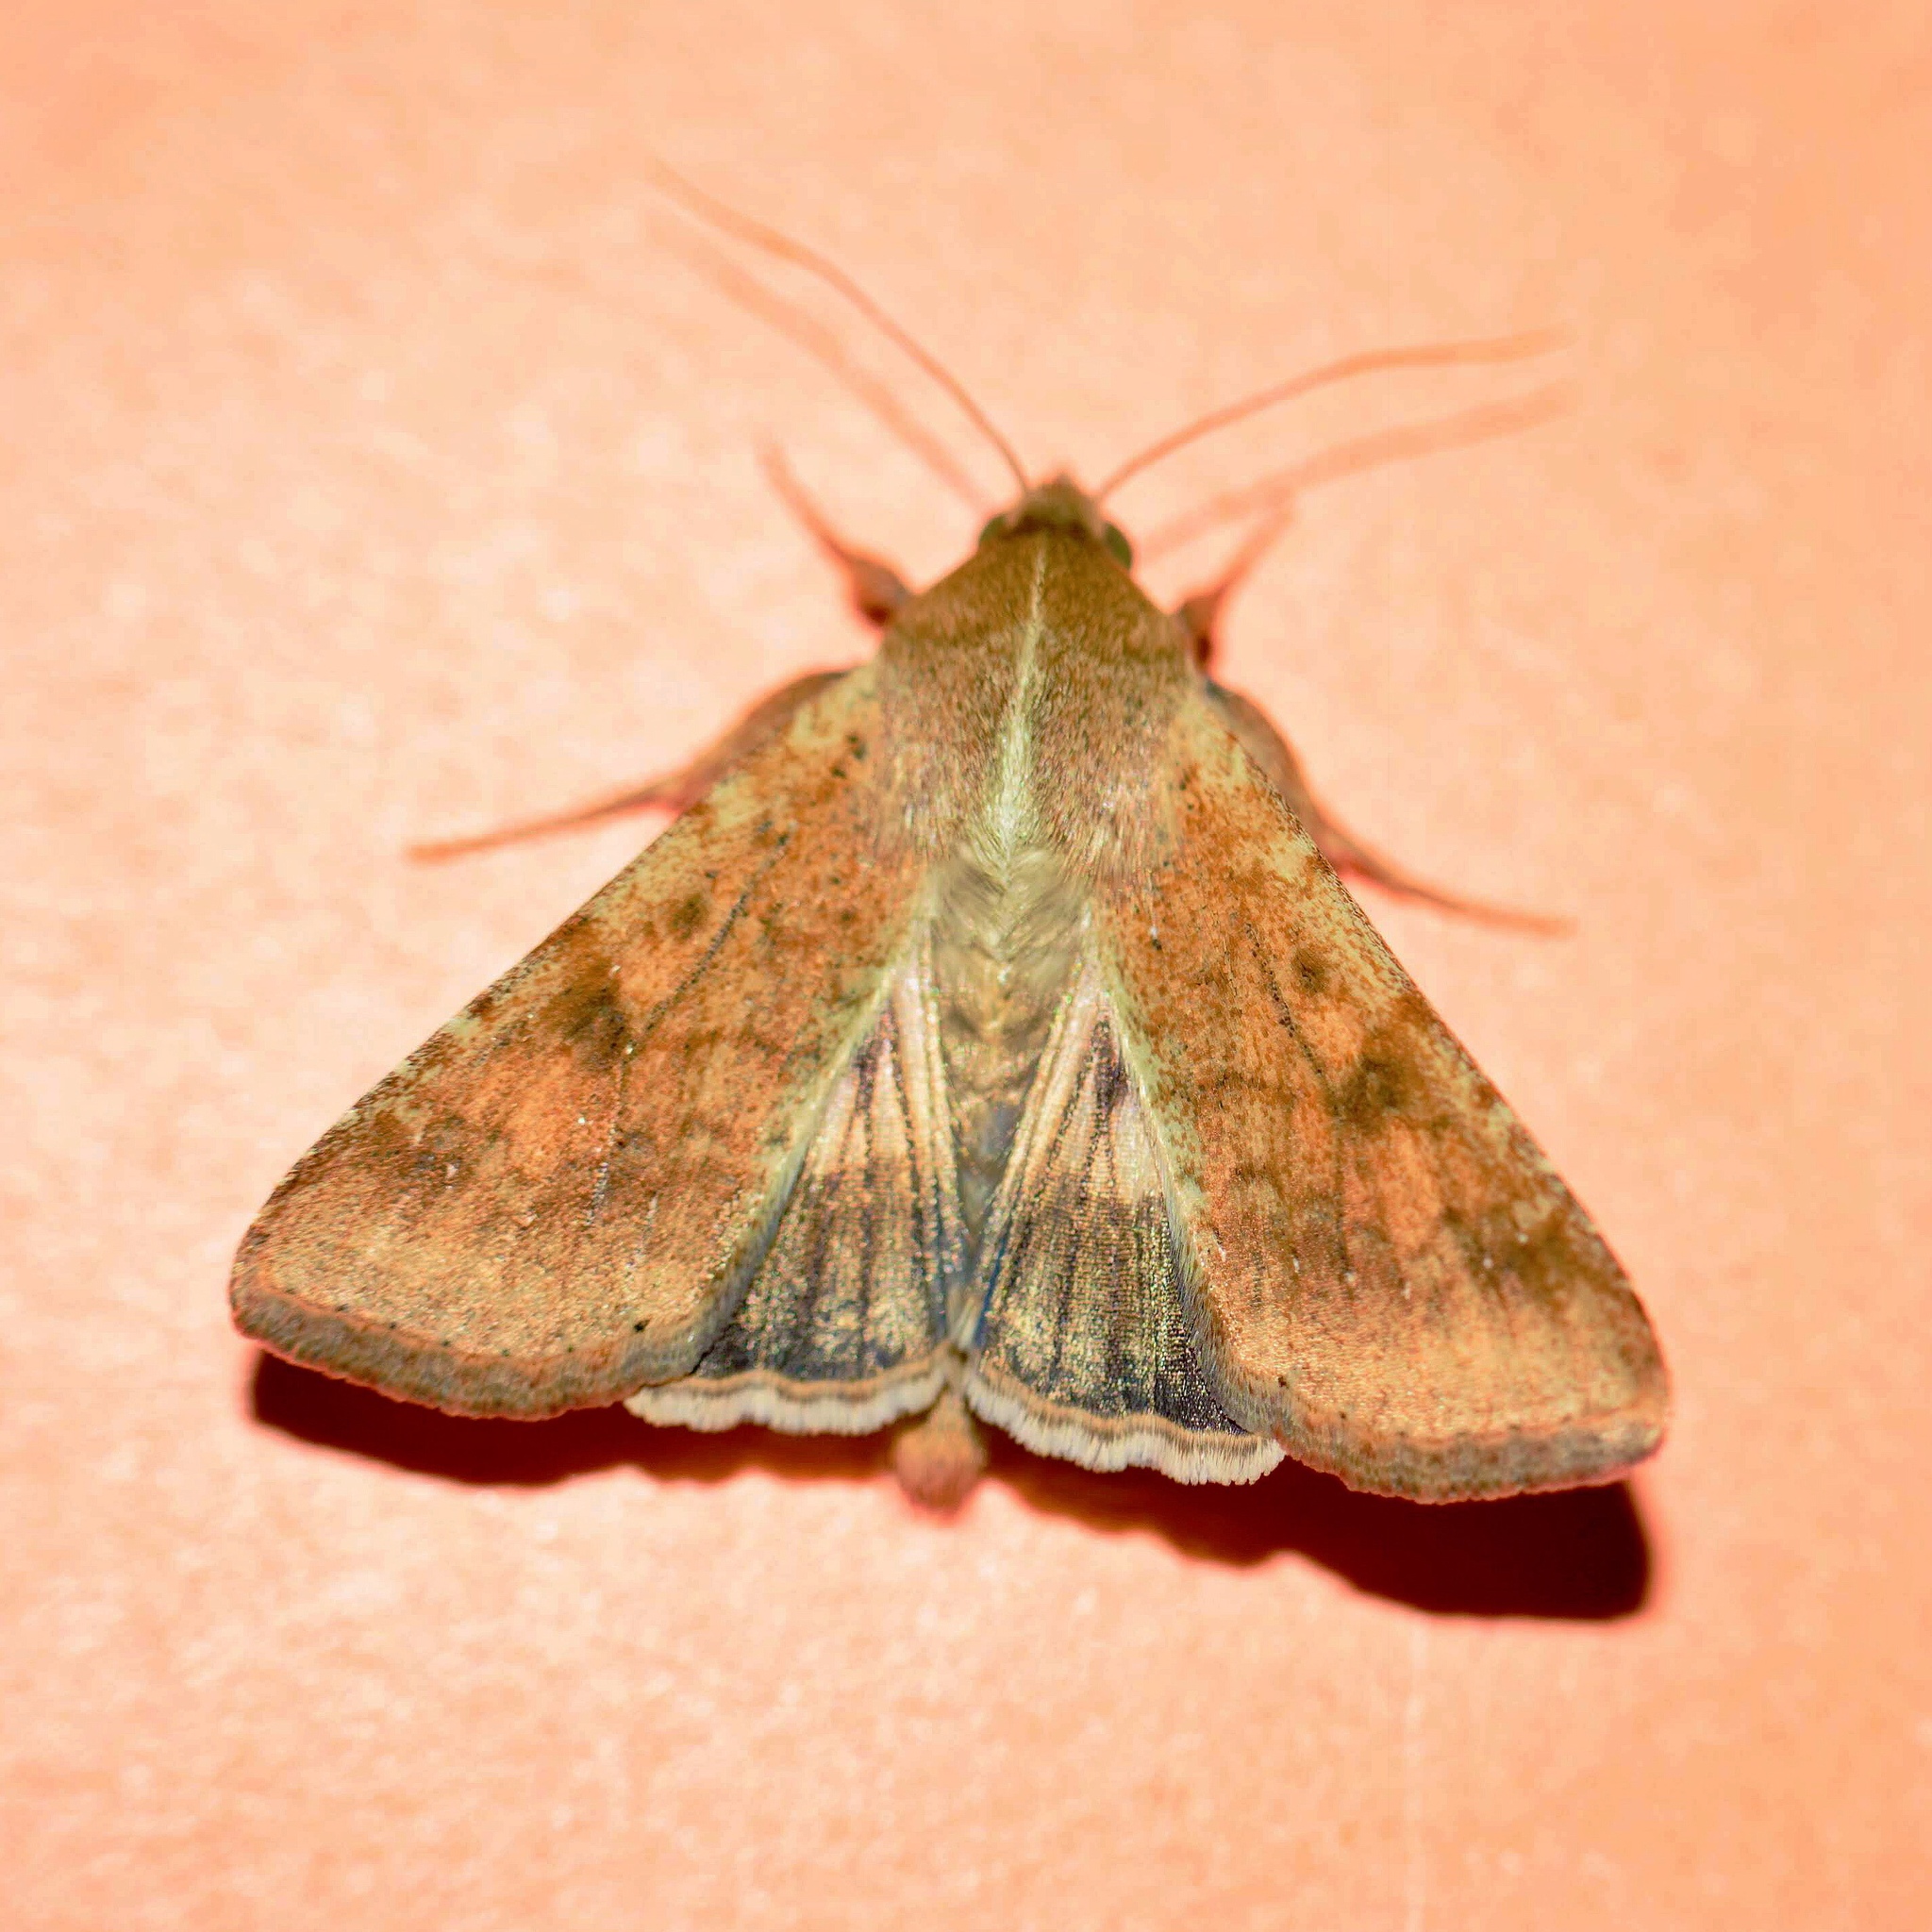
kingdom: Animalia
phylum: Arthropoda
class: Insecta
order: Lepidoptera
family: Noctuidae
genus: Helicoverpa
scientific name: Helicoverpa armigera
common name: Cotton bollworm
